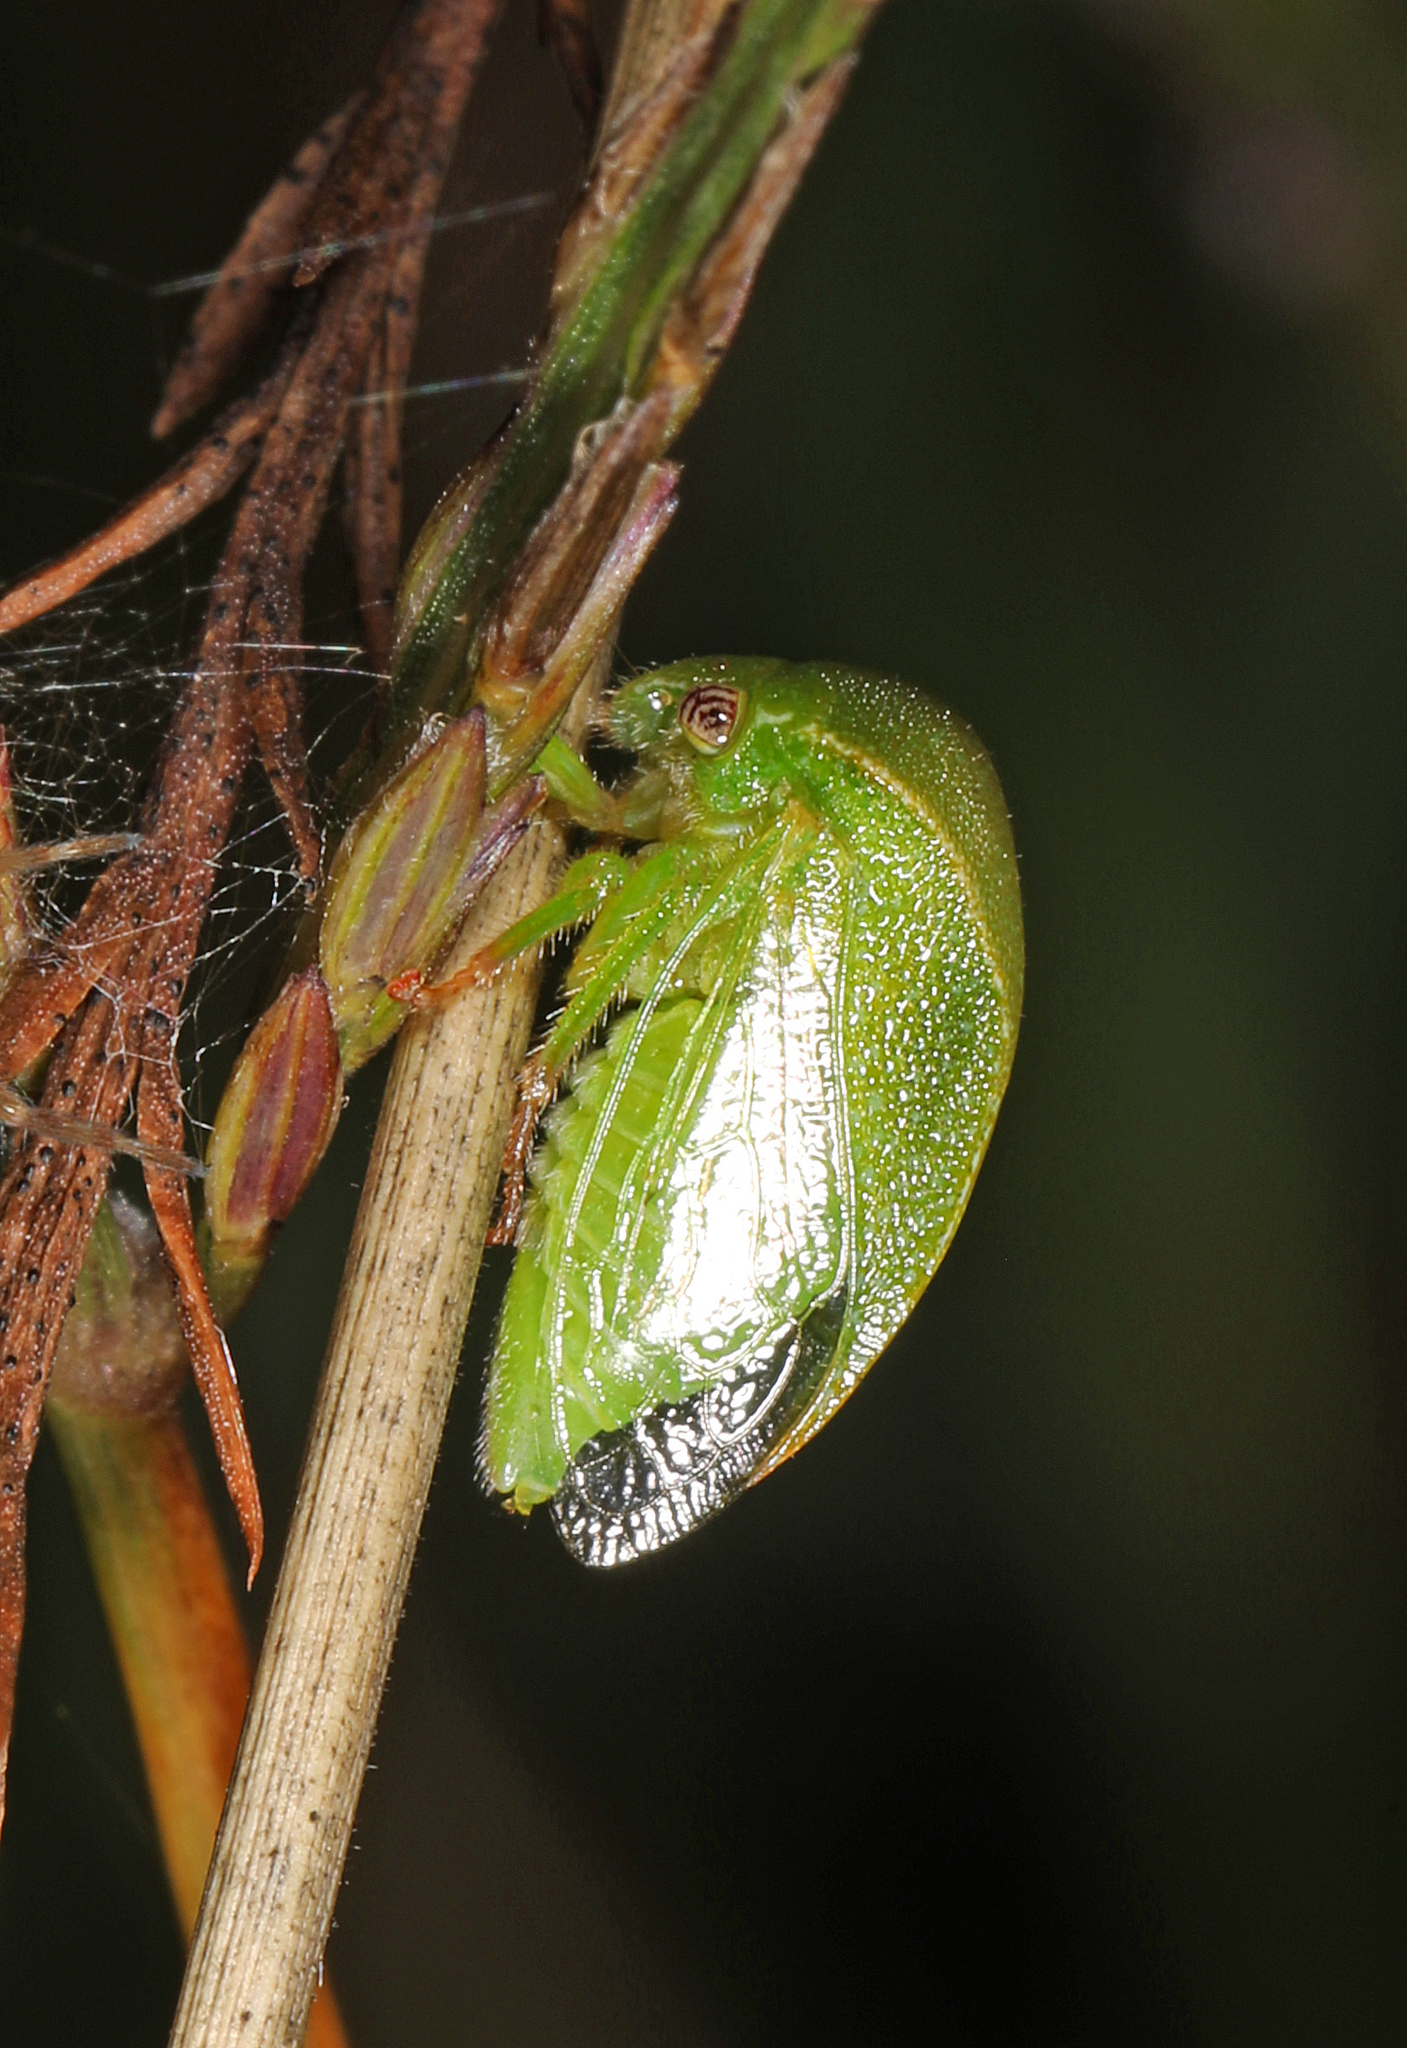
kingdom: Animalia
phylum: Arthropoda
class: Insecta
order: Hemiptera
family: Membracidae
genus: Spissistilus
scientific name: Spissistilus festina
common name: Membracid bug
